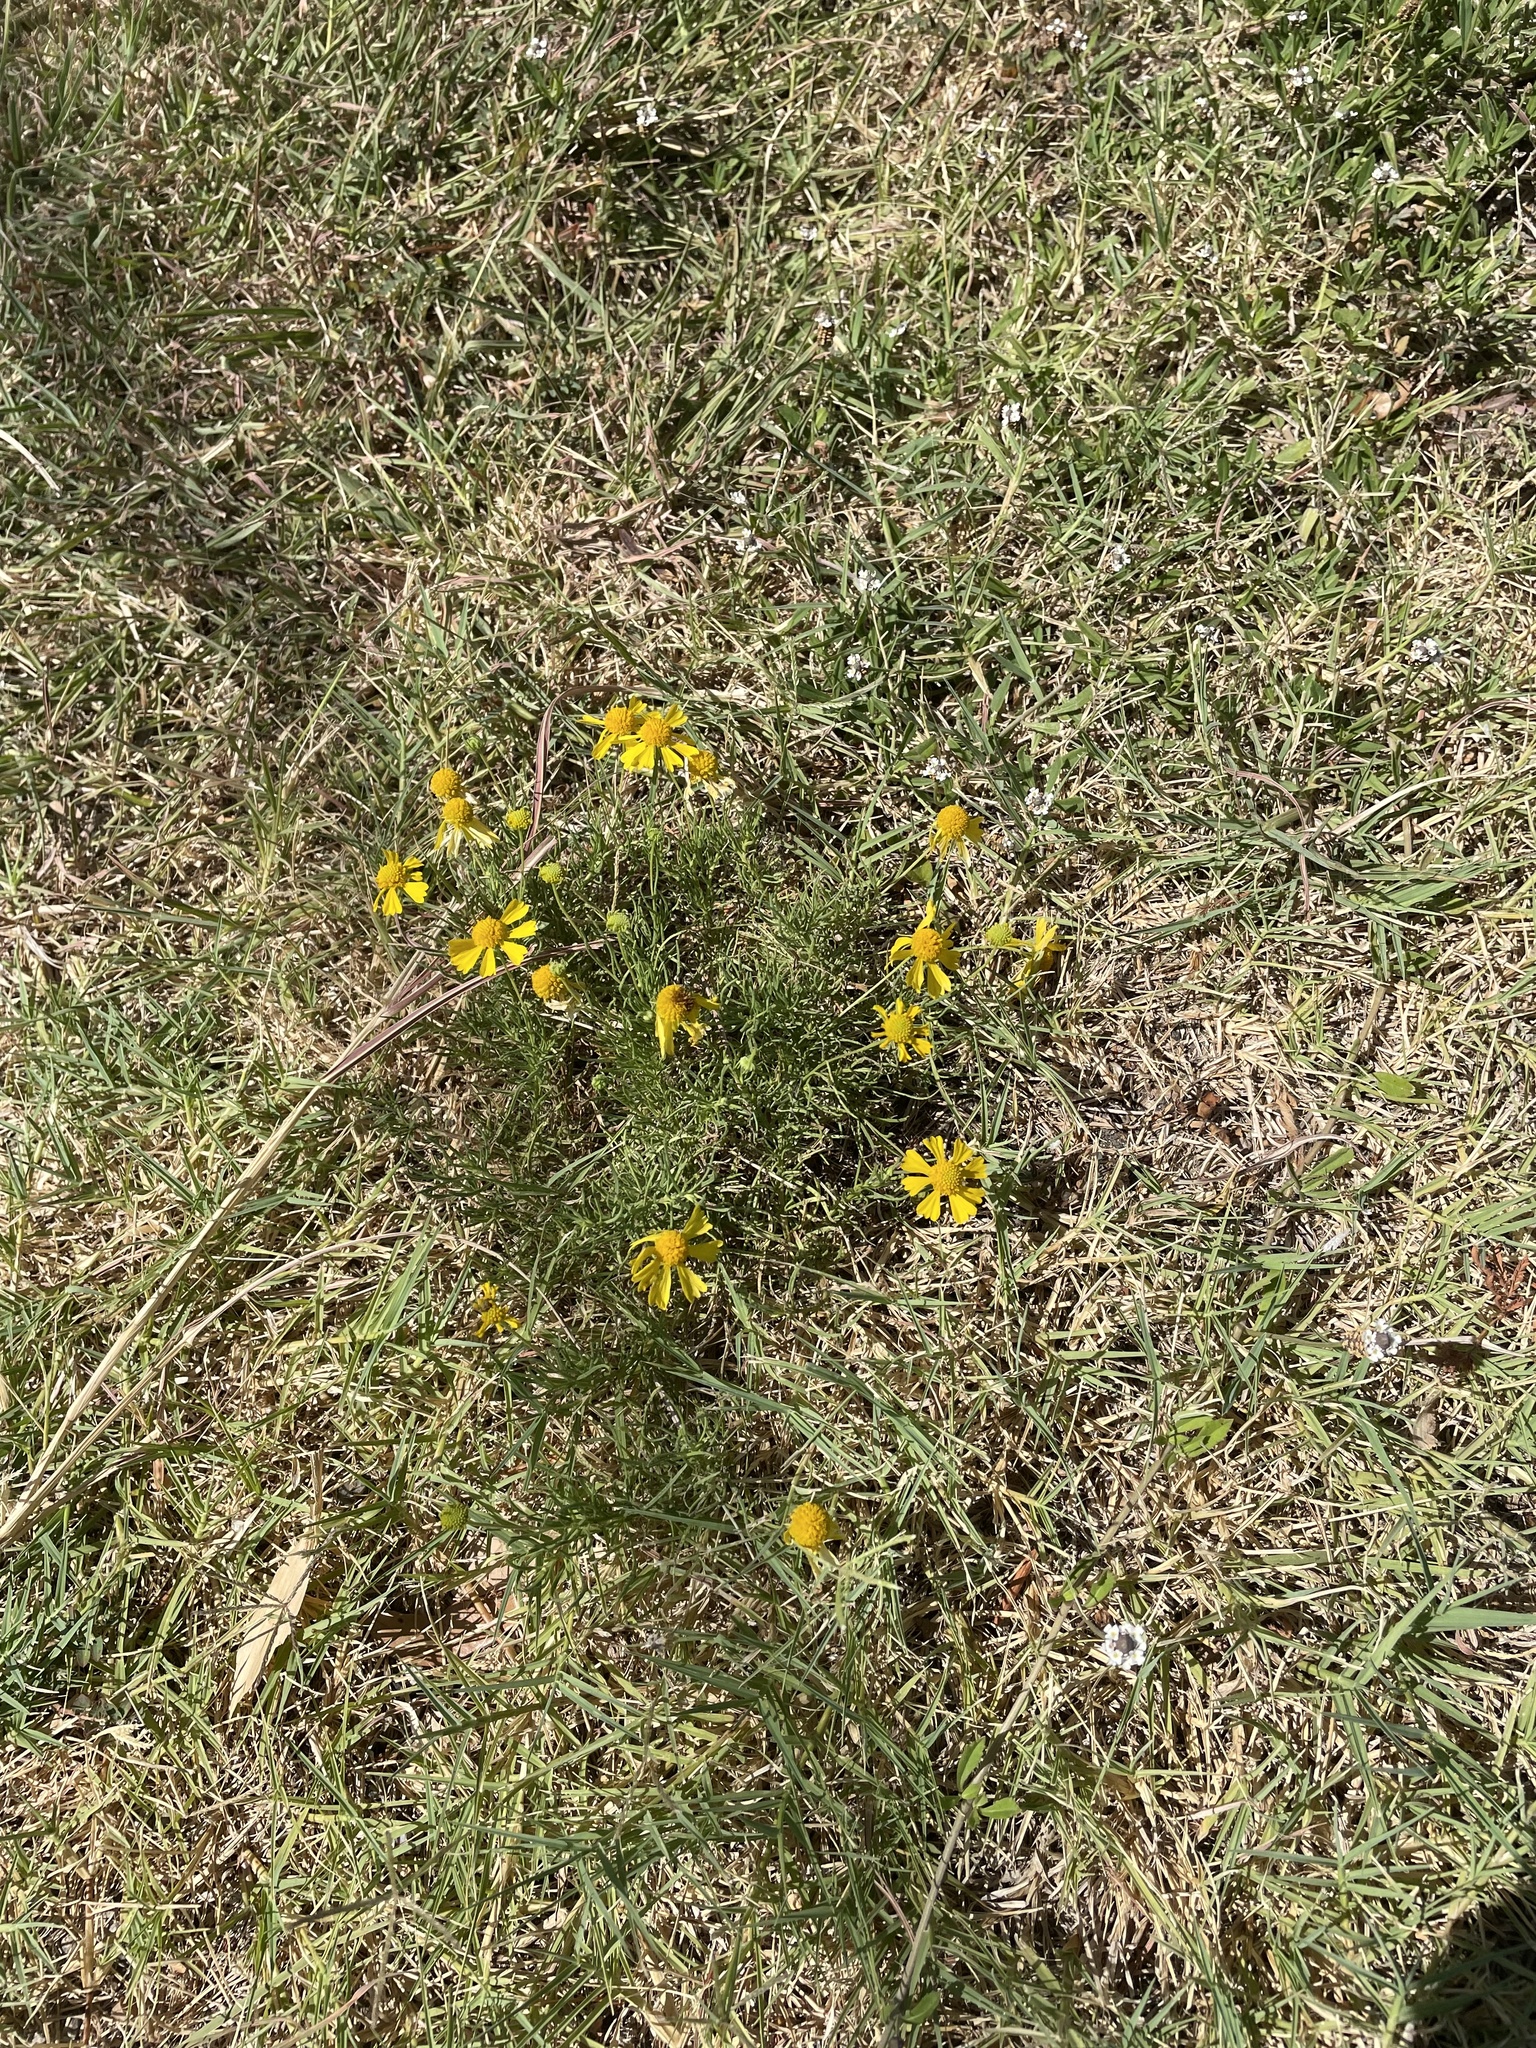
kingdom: Plantae
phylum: Tracheophyta
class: Magnoliopsida
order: Asterales
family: Asteraceae
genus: Helenium
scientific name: Helenium amarum
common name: Bitter sneezeweed
